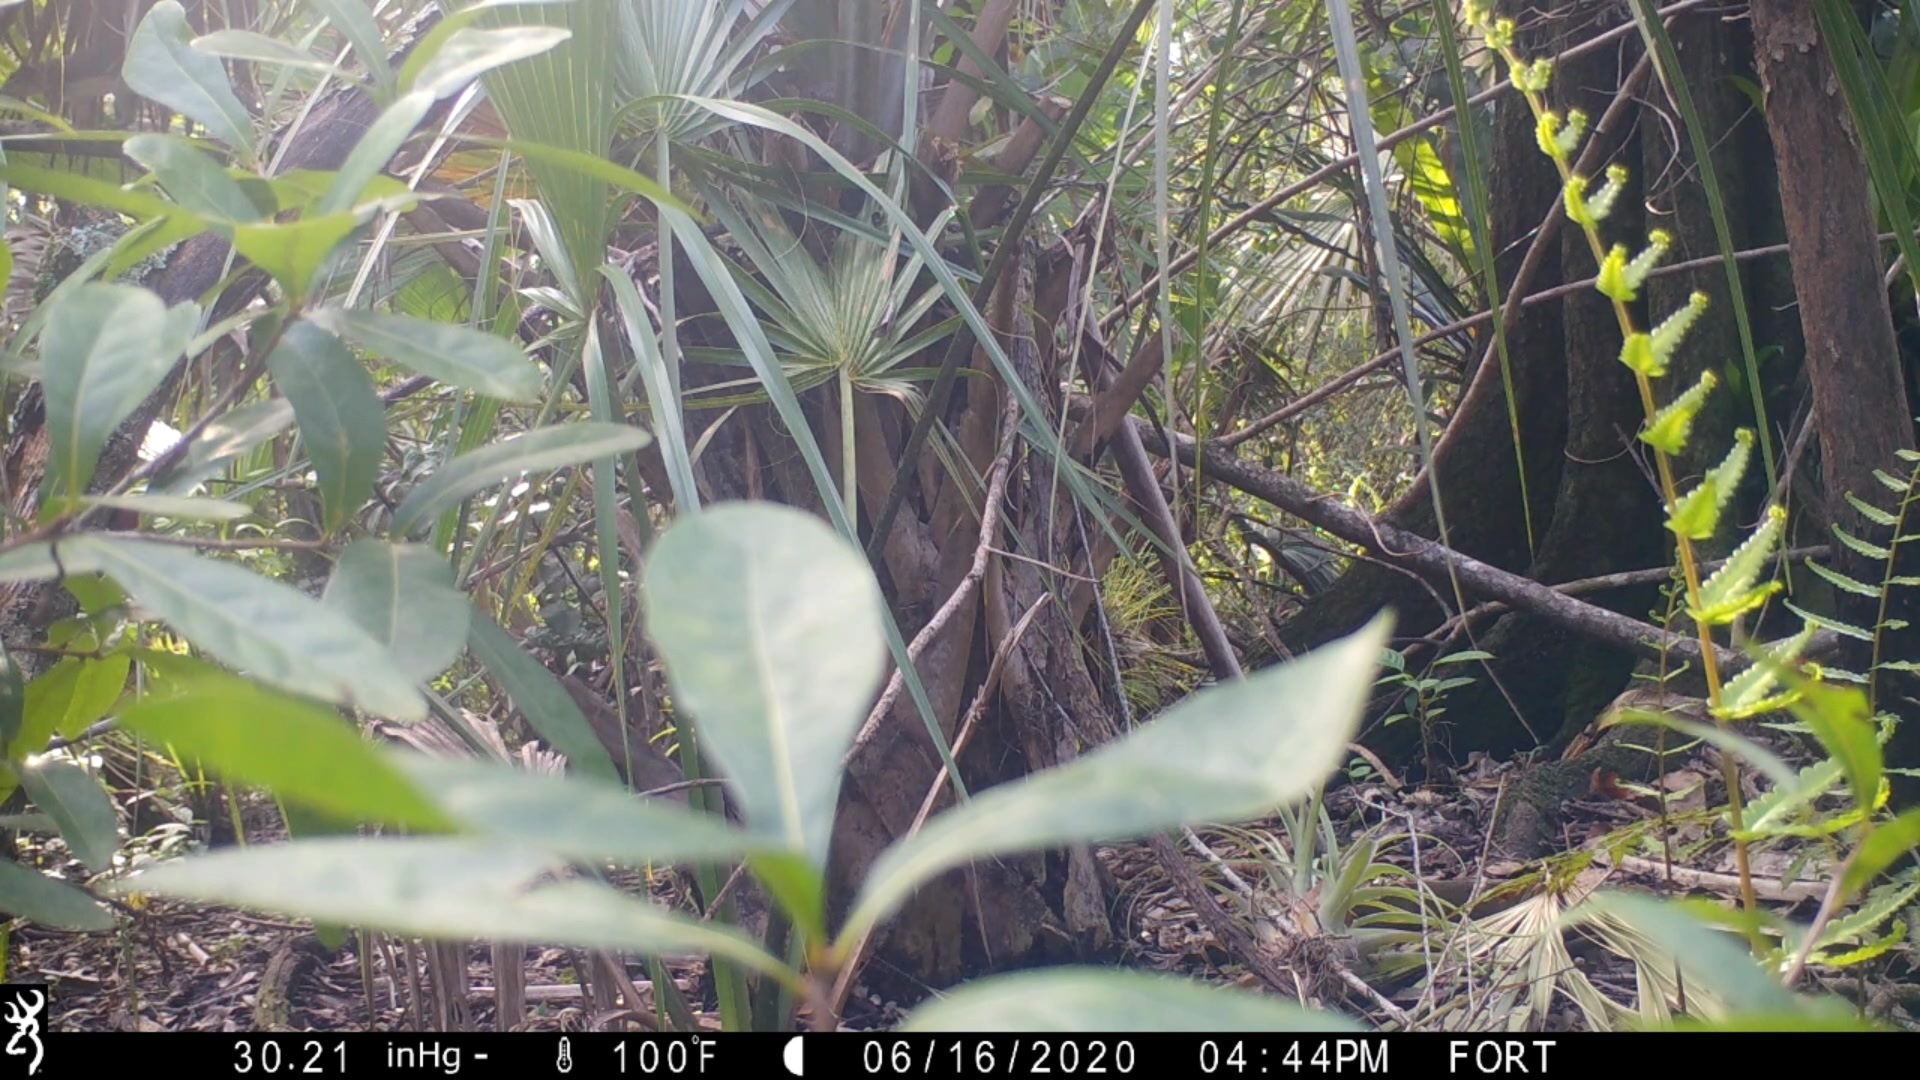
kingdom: Animalia
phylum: Chordata
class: Mammalia
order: Rodentia
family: Sciuridae
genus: Sciurus
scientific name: Sciurus carolinensis
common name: Eastern gray squirrel
